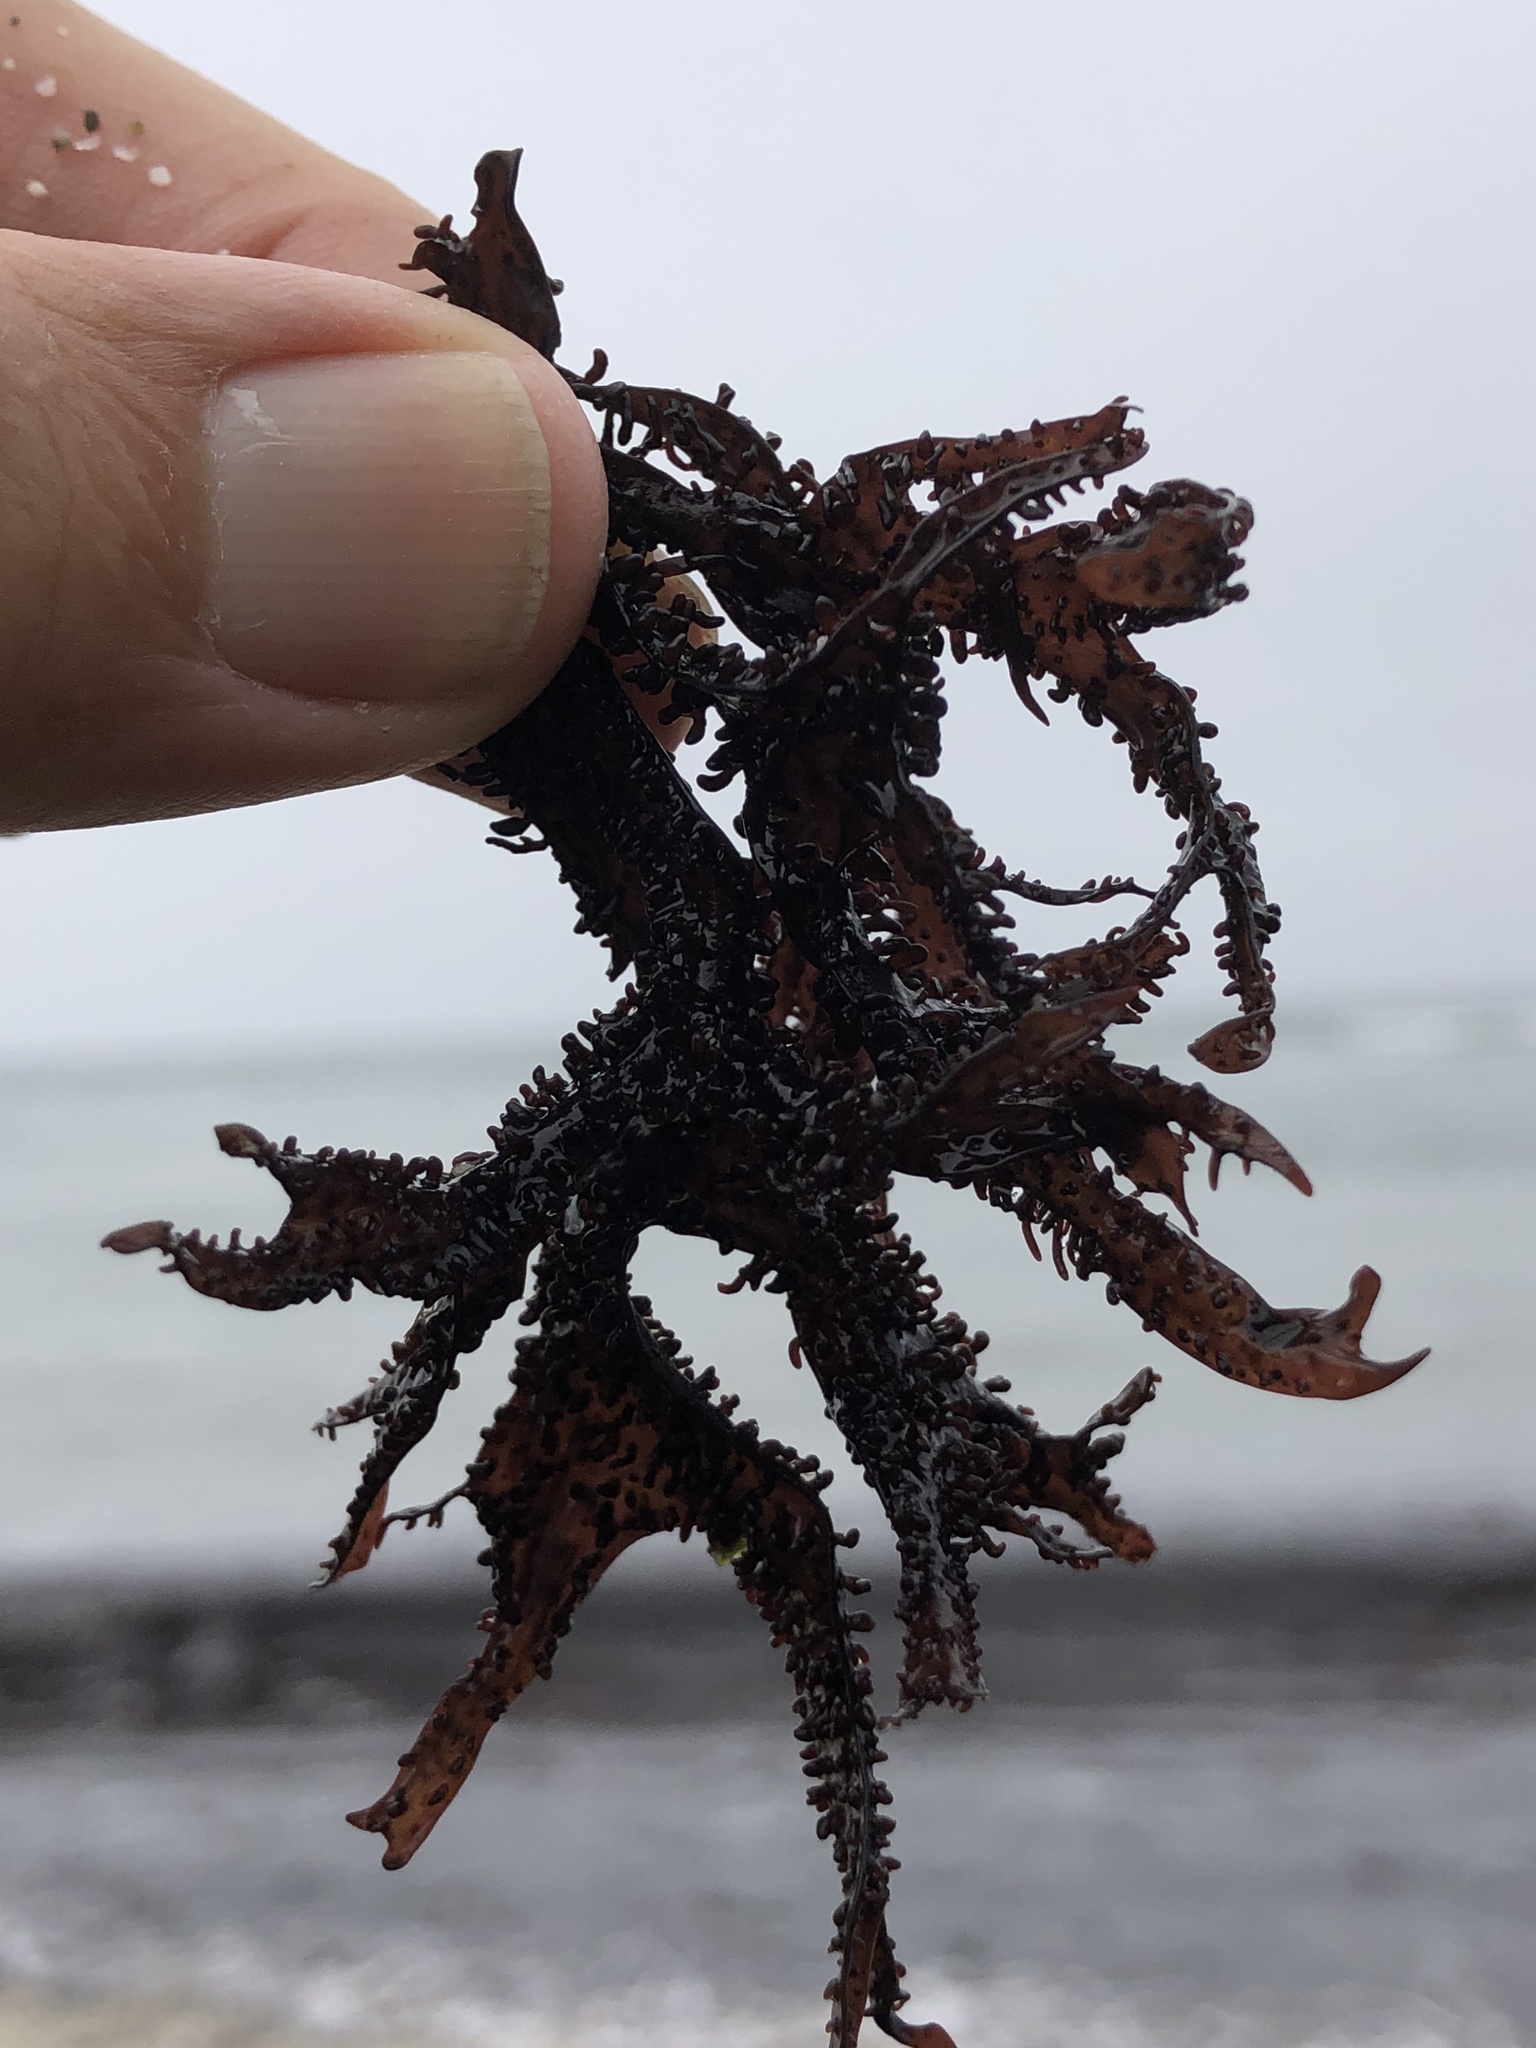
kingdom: Plantae
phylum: Rhodophyta
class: Florideophyceae
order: Gigartinales
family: Phyllophoraceae
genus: Mastocarpus
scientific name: Mastocarpus jardinii
